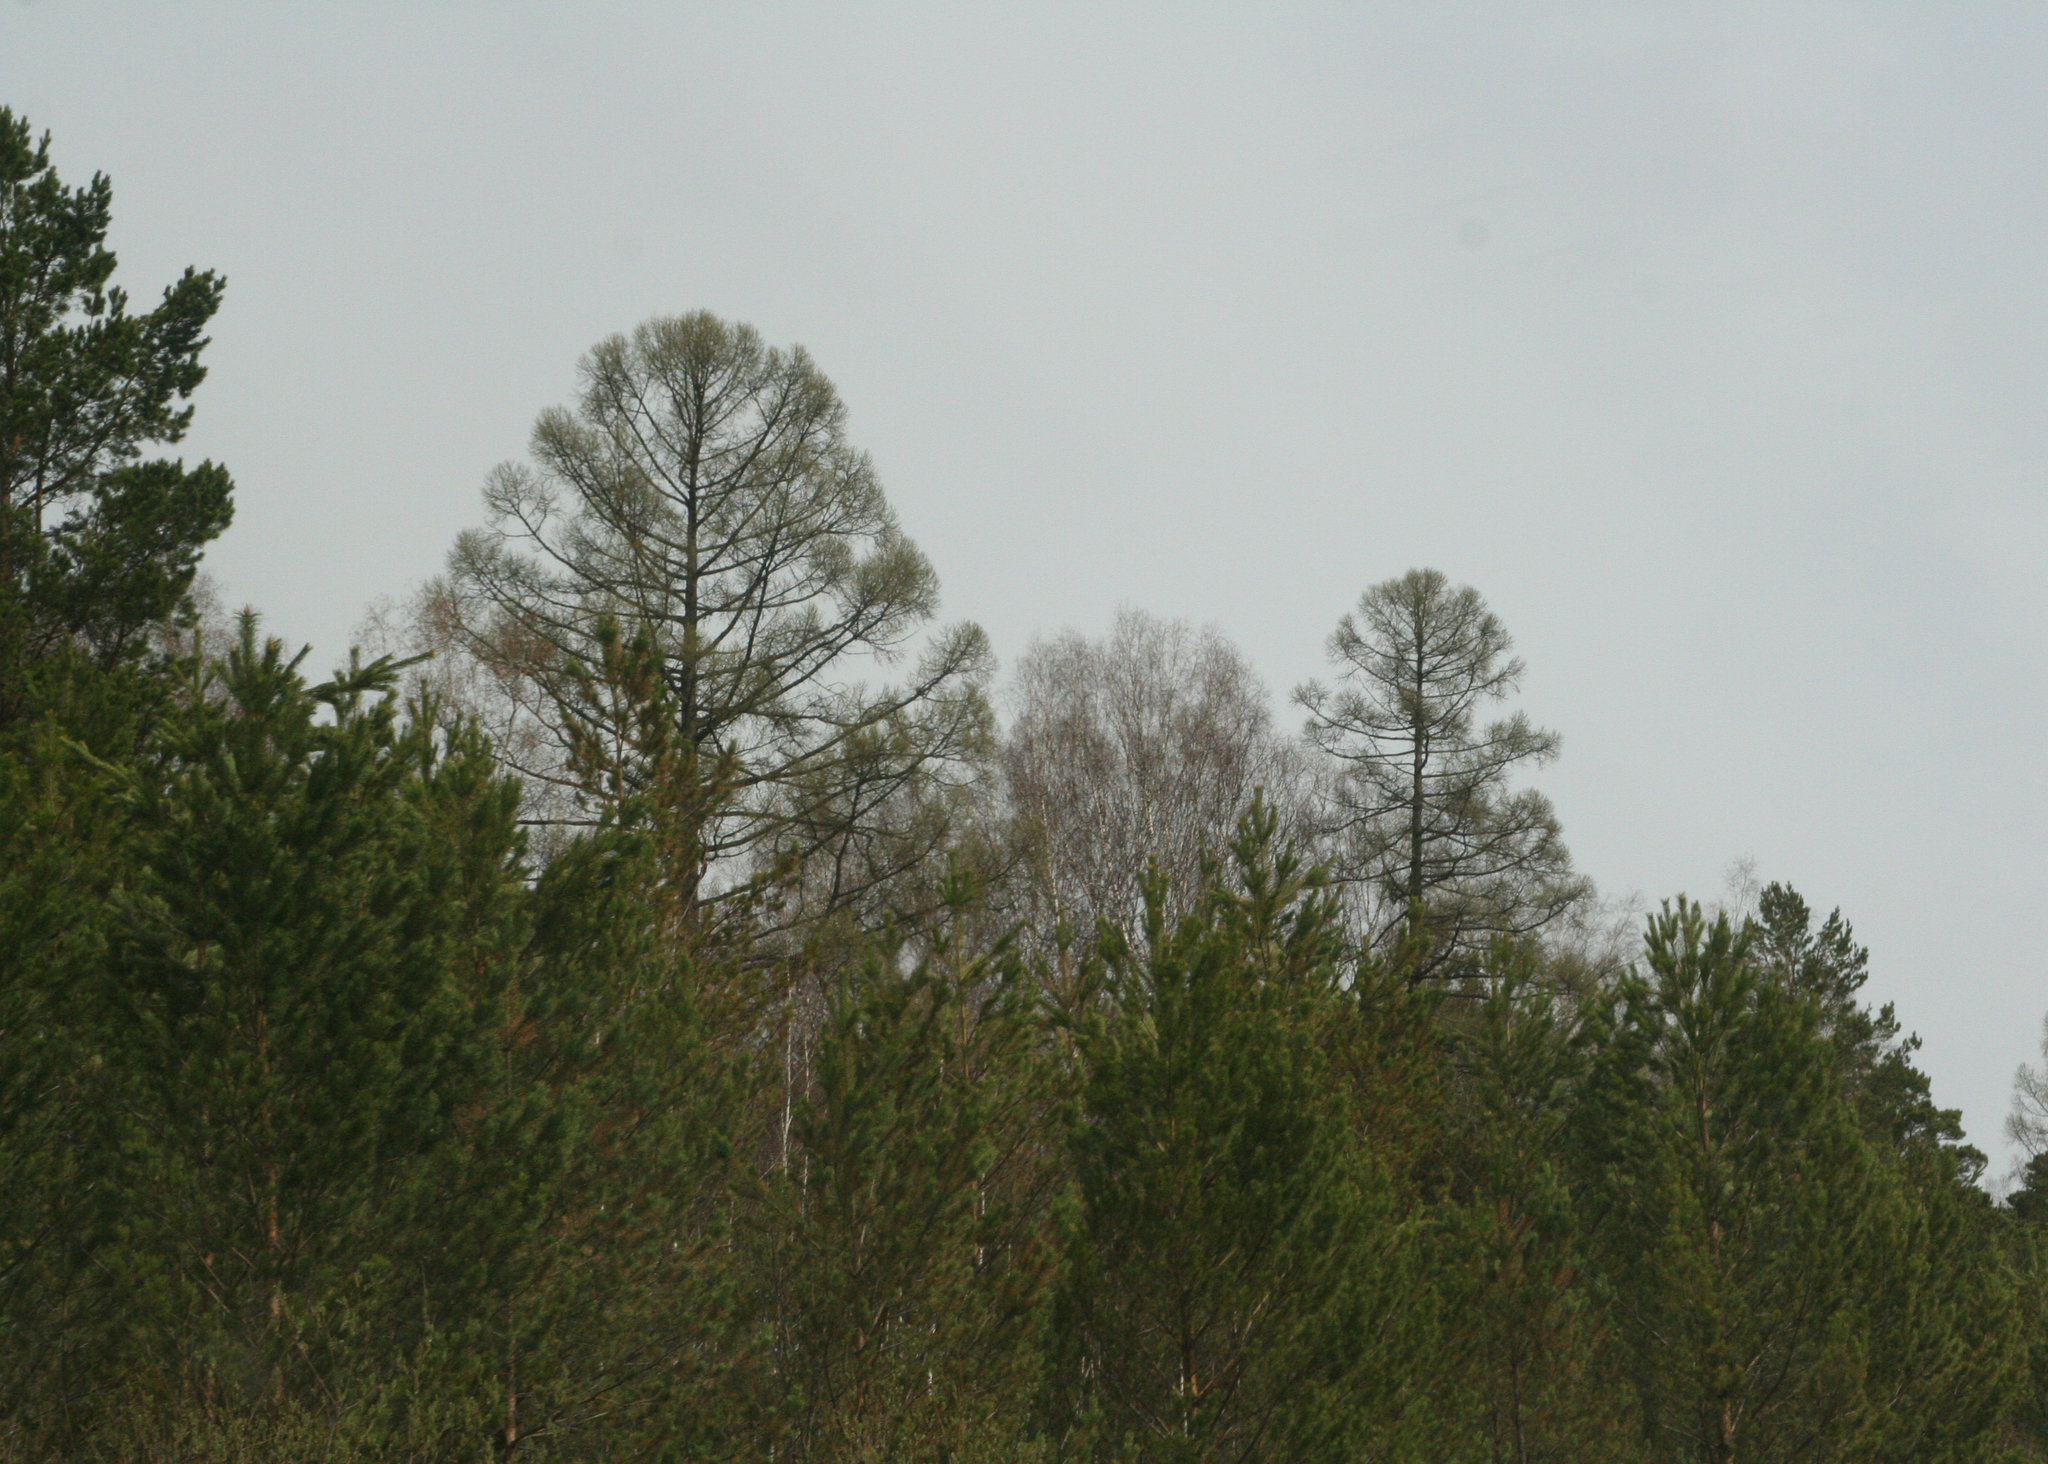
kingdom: Plantae
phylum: Tracheophyta
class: Pinopsida
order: Pinales
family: Pinaceae
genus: Larix
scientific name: Larix sibirica
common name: Siberian larch
